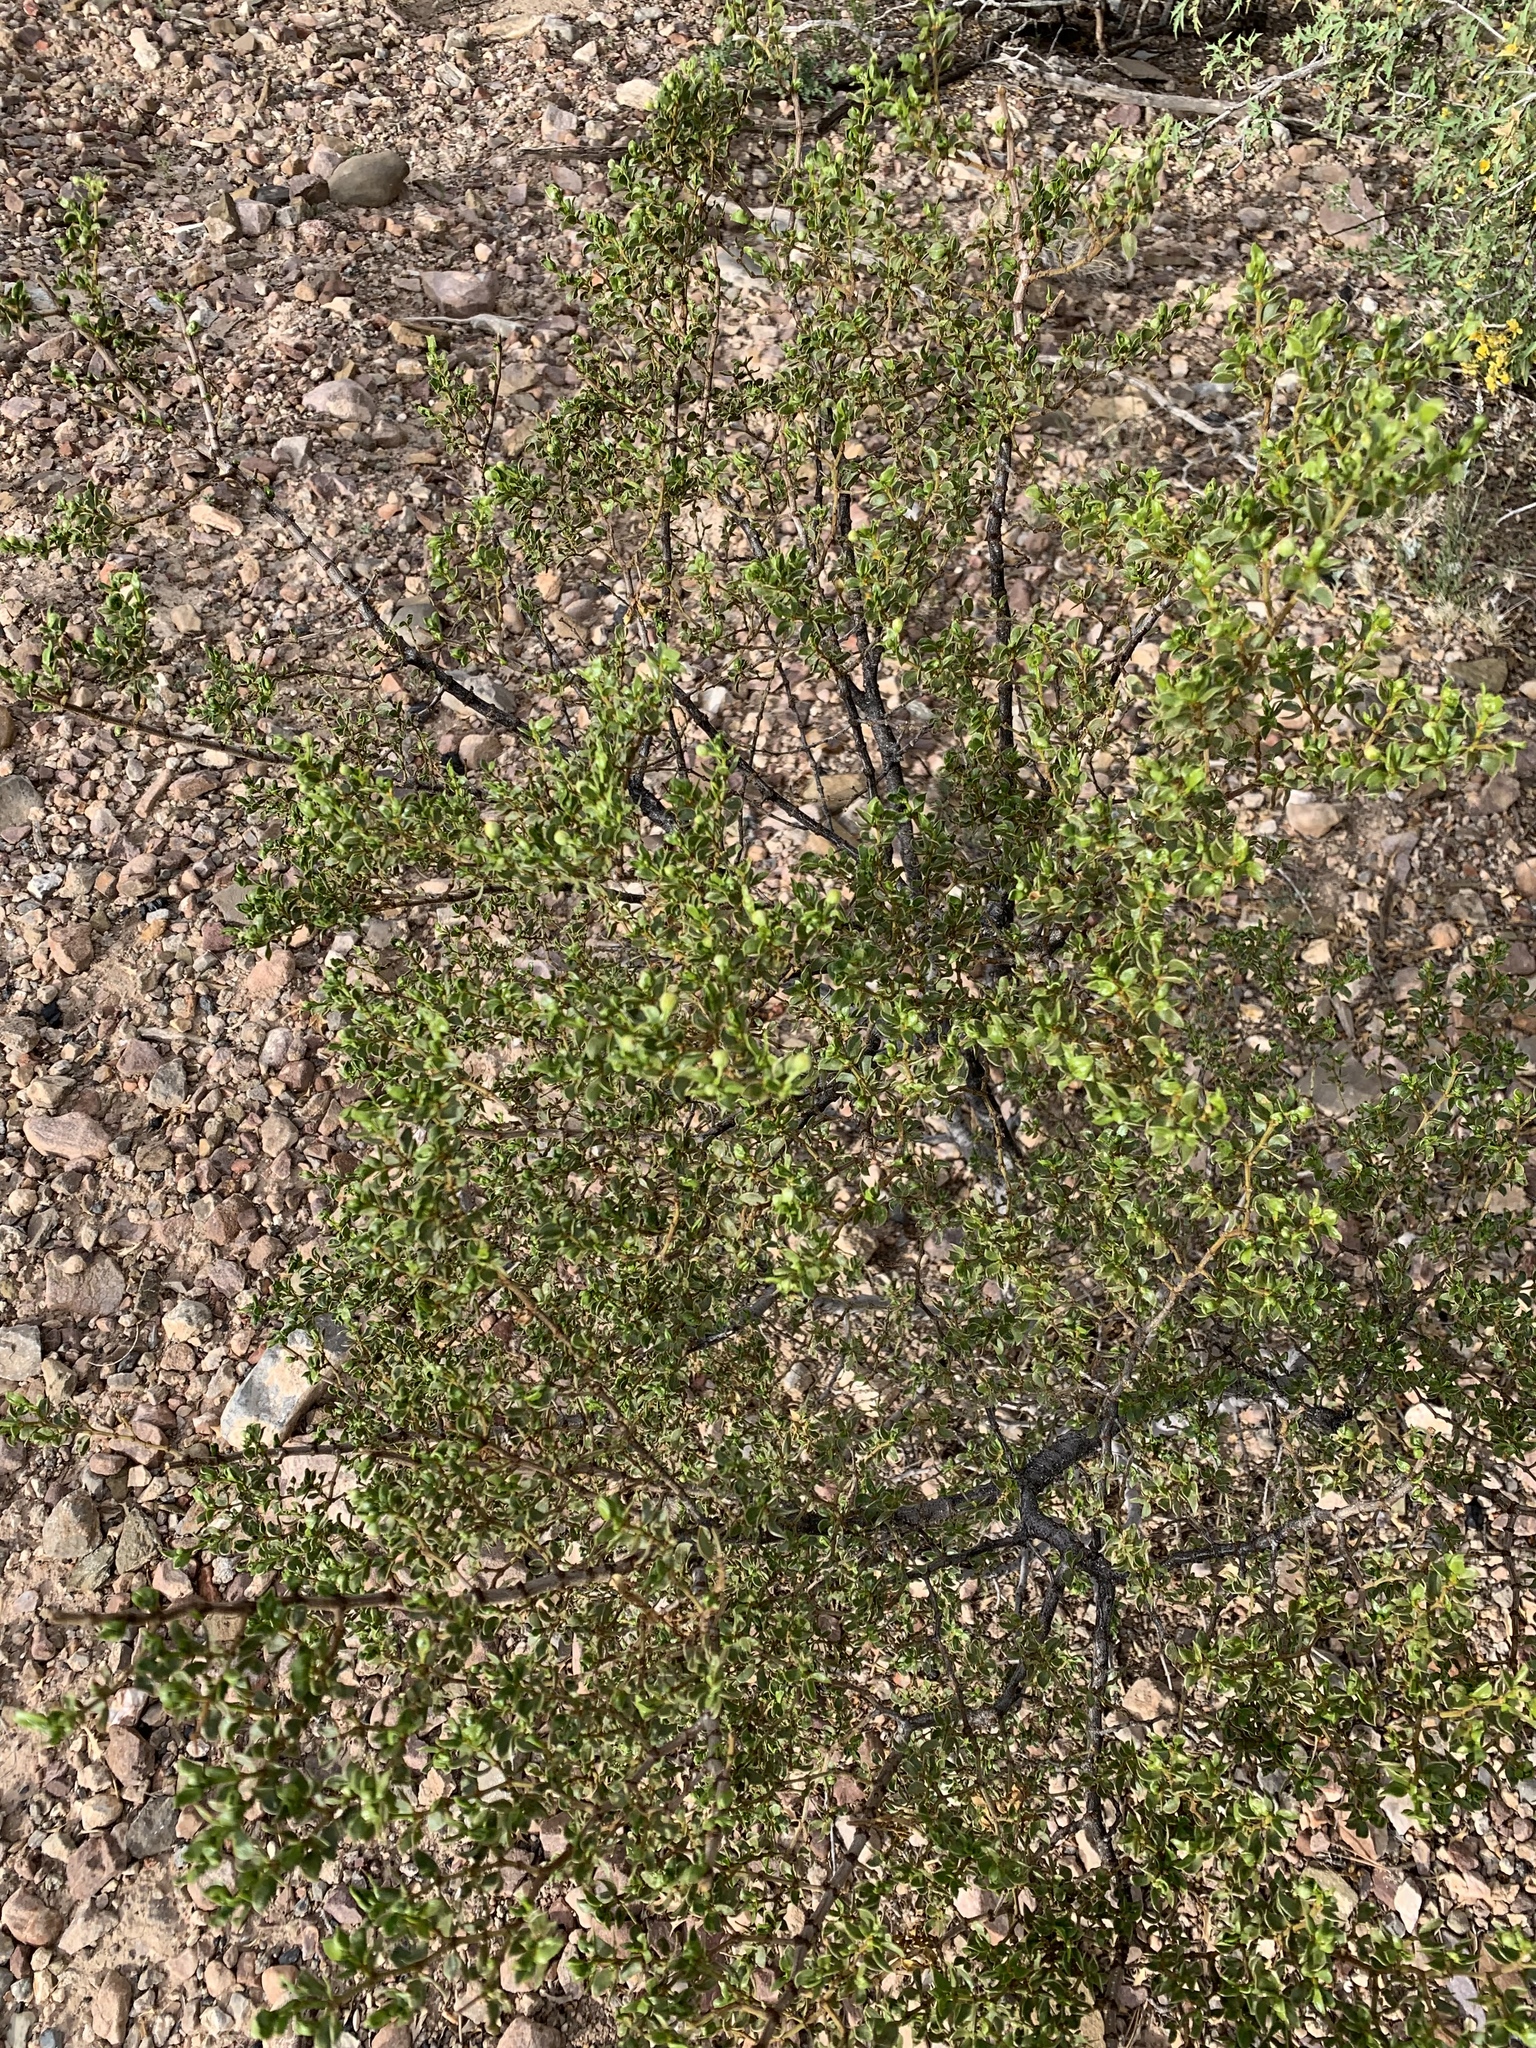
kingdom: Plantae
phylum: Tracheophyta
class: Magnoliopsida
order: Zygophyllales
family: Zygophyllaceae
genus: Larrea
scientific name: Larrea tridentata
